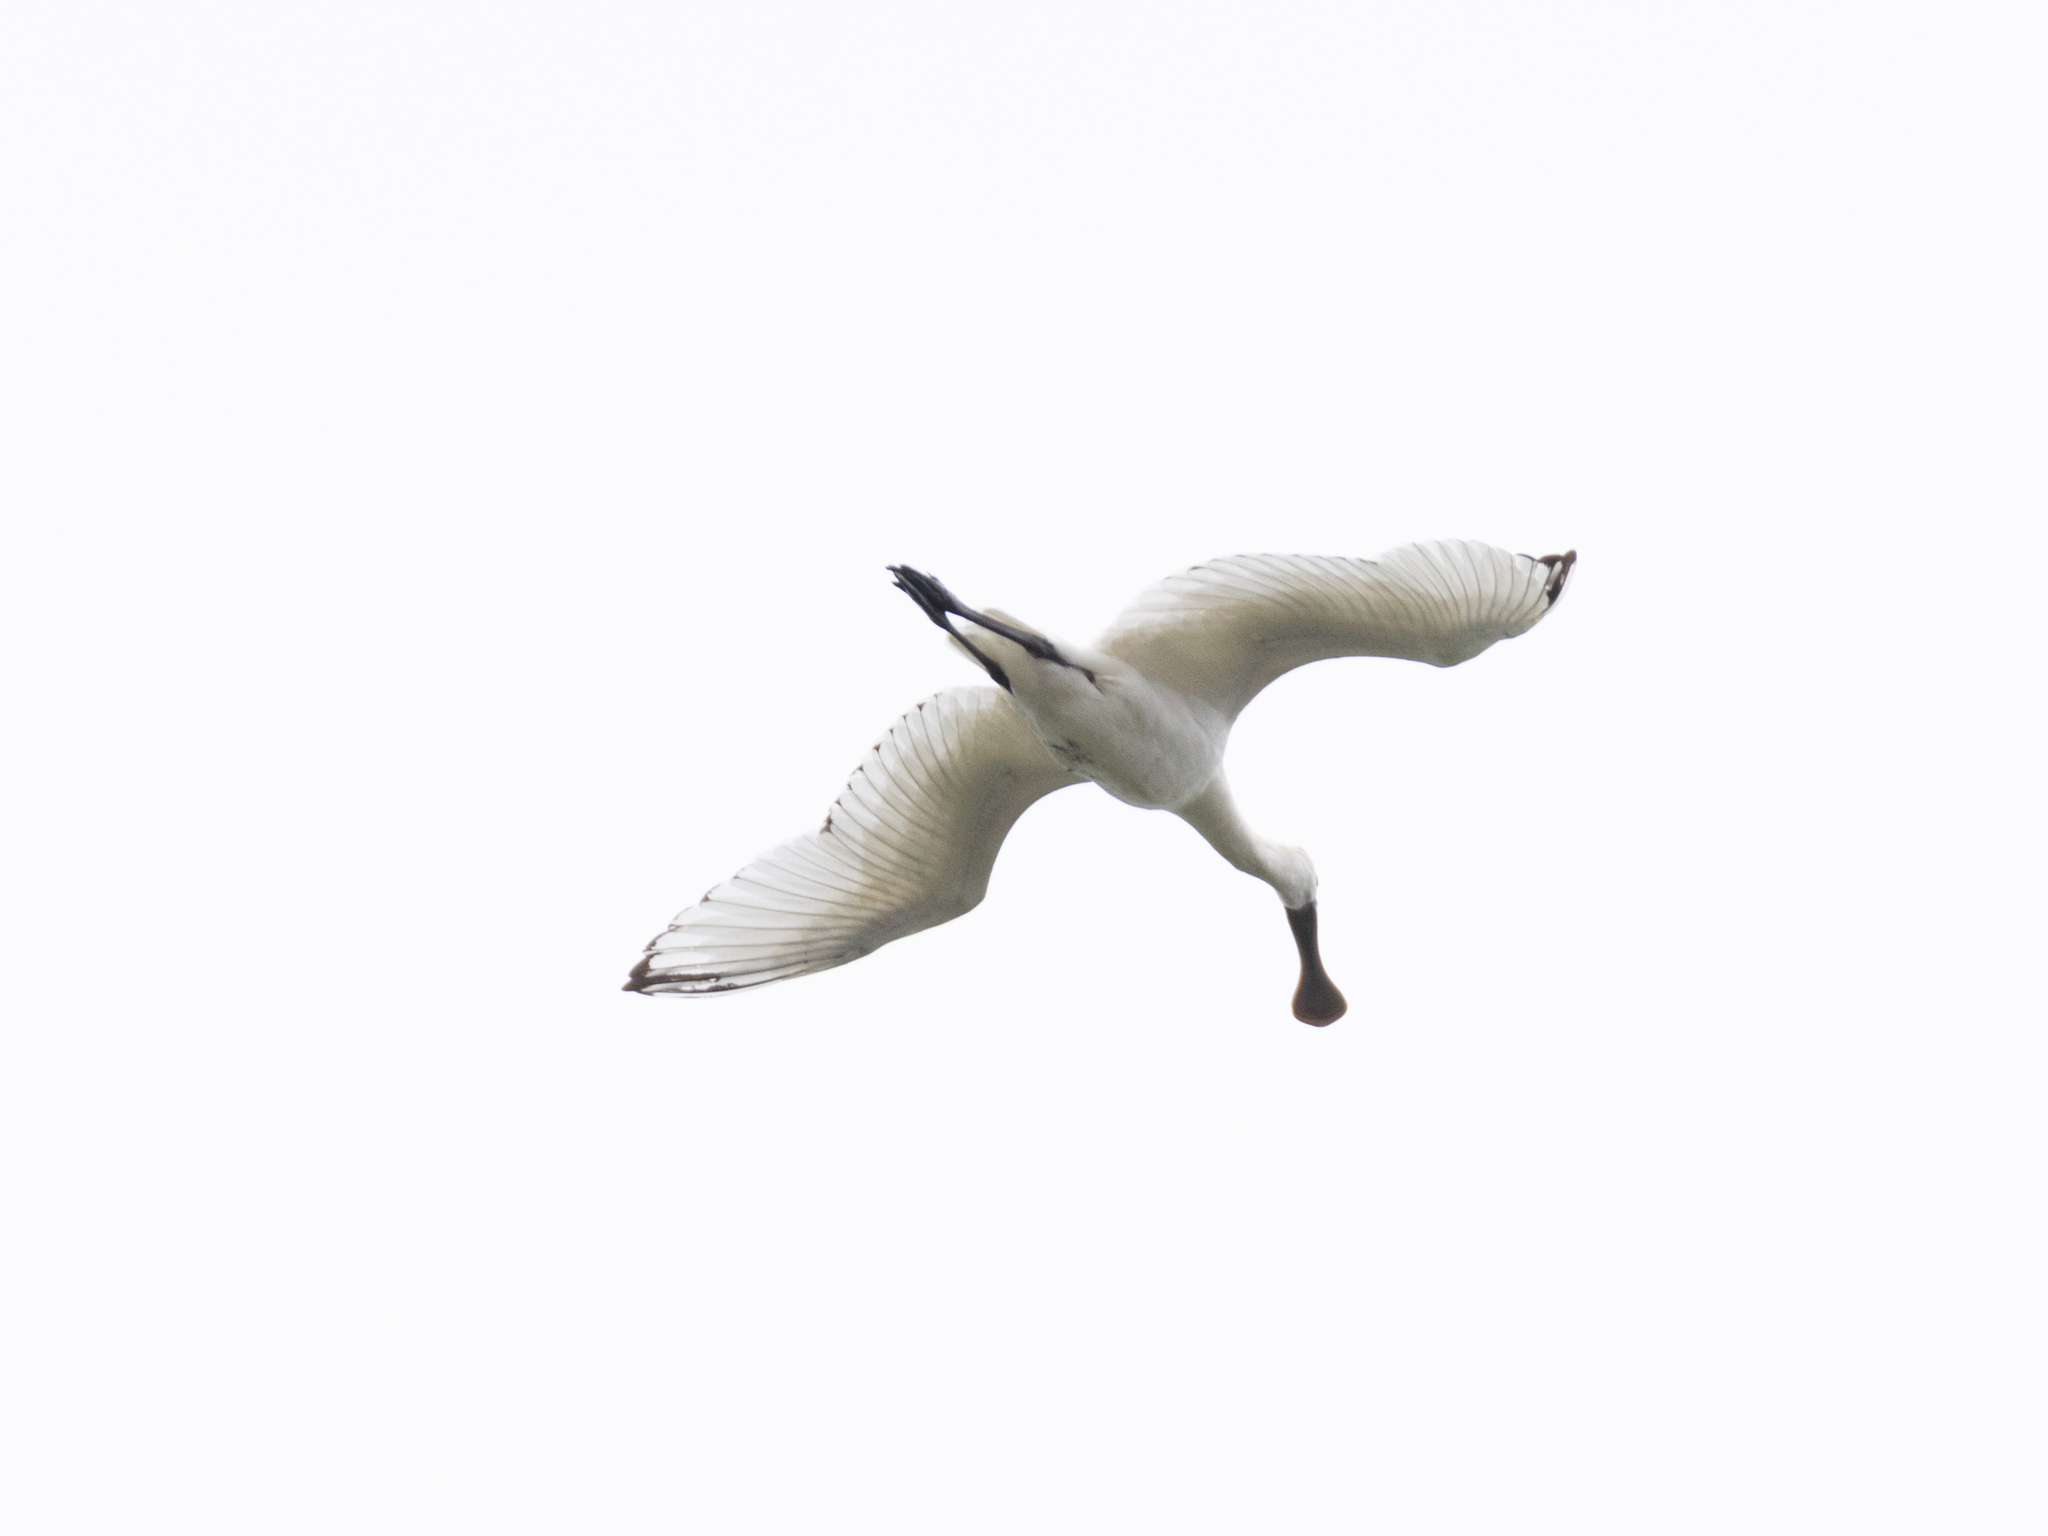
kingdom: Animalia
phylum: Chordata
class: Aves
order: Pelecaniformes
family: Threskiornithidae
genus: Platalea
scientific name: Platalea minor
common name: Black-faced spoonbill
